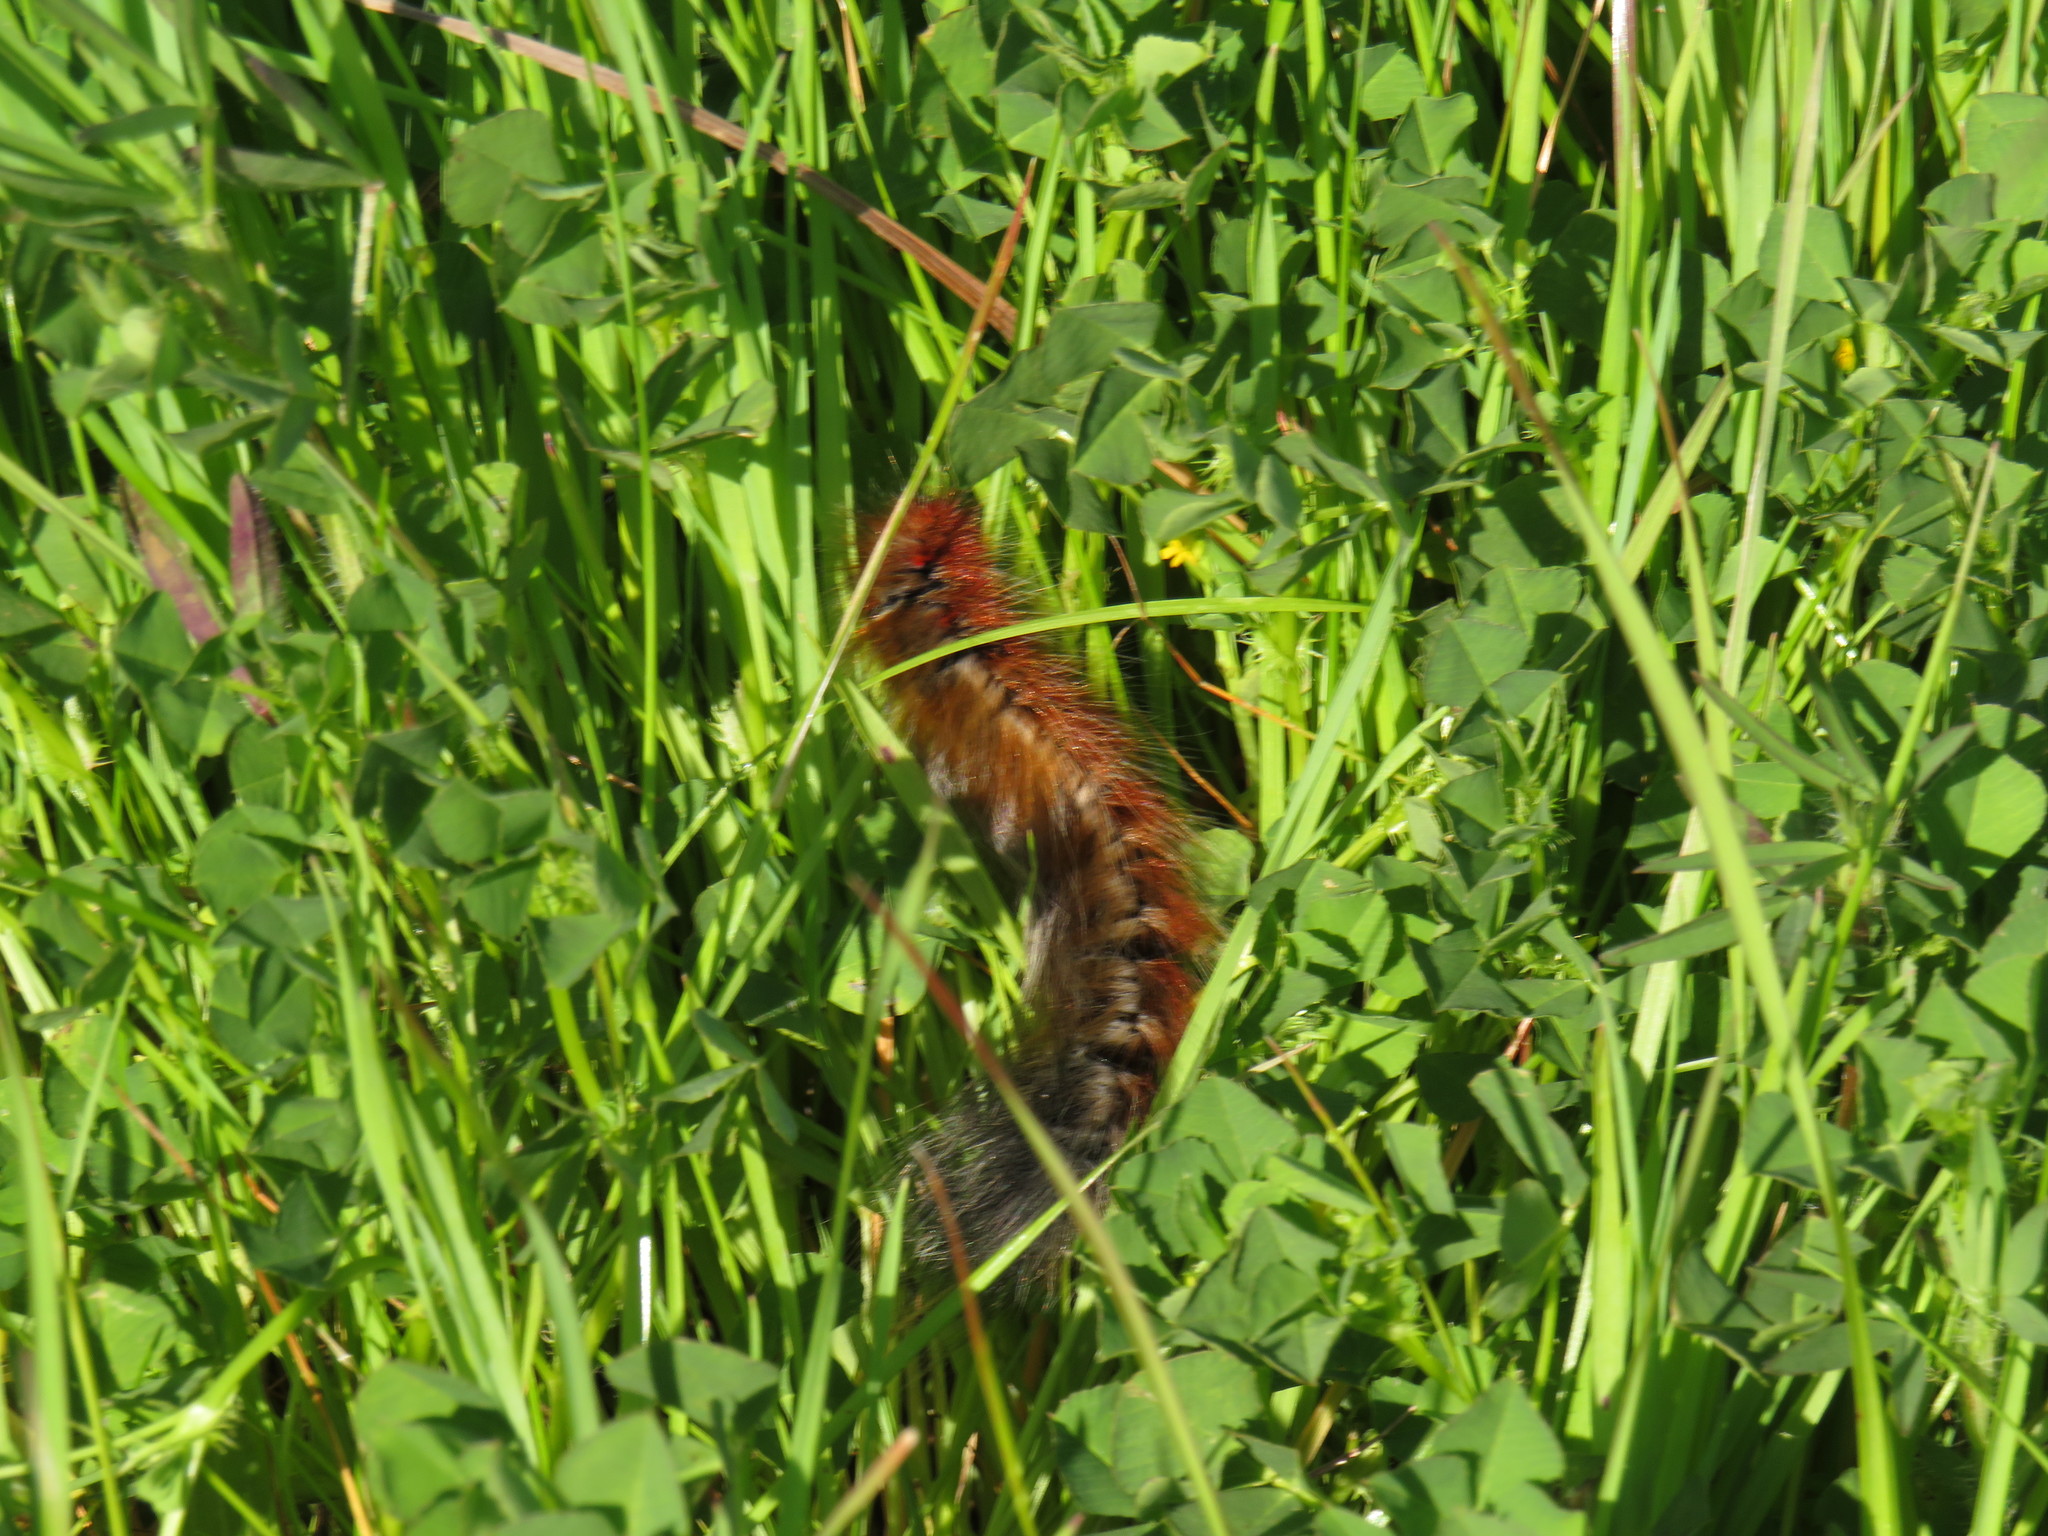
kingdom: Animalia
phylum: Arthropoda
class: Insecta
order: Lepidoptera
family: Lasiocampidae
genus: Mesocelis
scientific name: Mesocelis monticola
